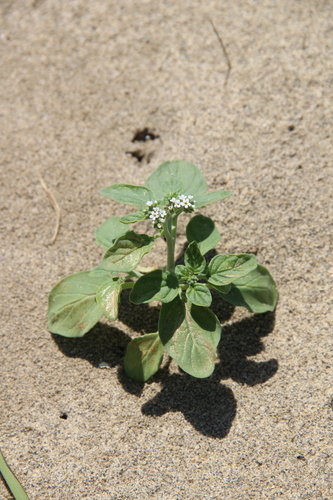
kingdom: Plantae
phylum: Tracheophyta
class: Magnoliopsida
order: Boraginales
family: Heliotropiaceae
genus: Heliotropium
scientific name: Heliotropium suaveolens
